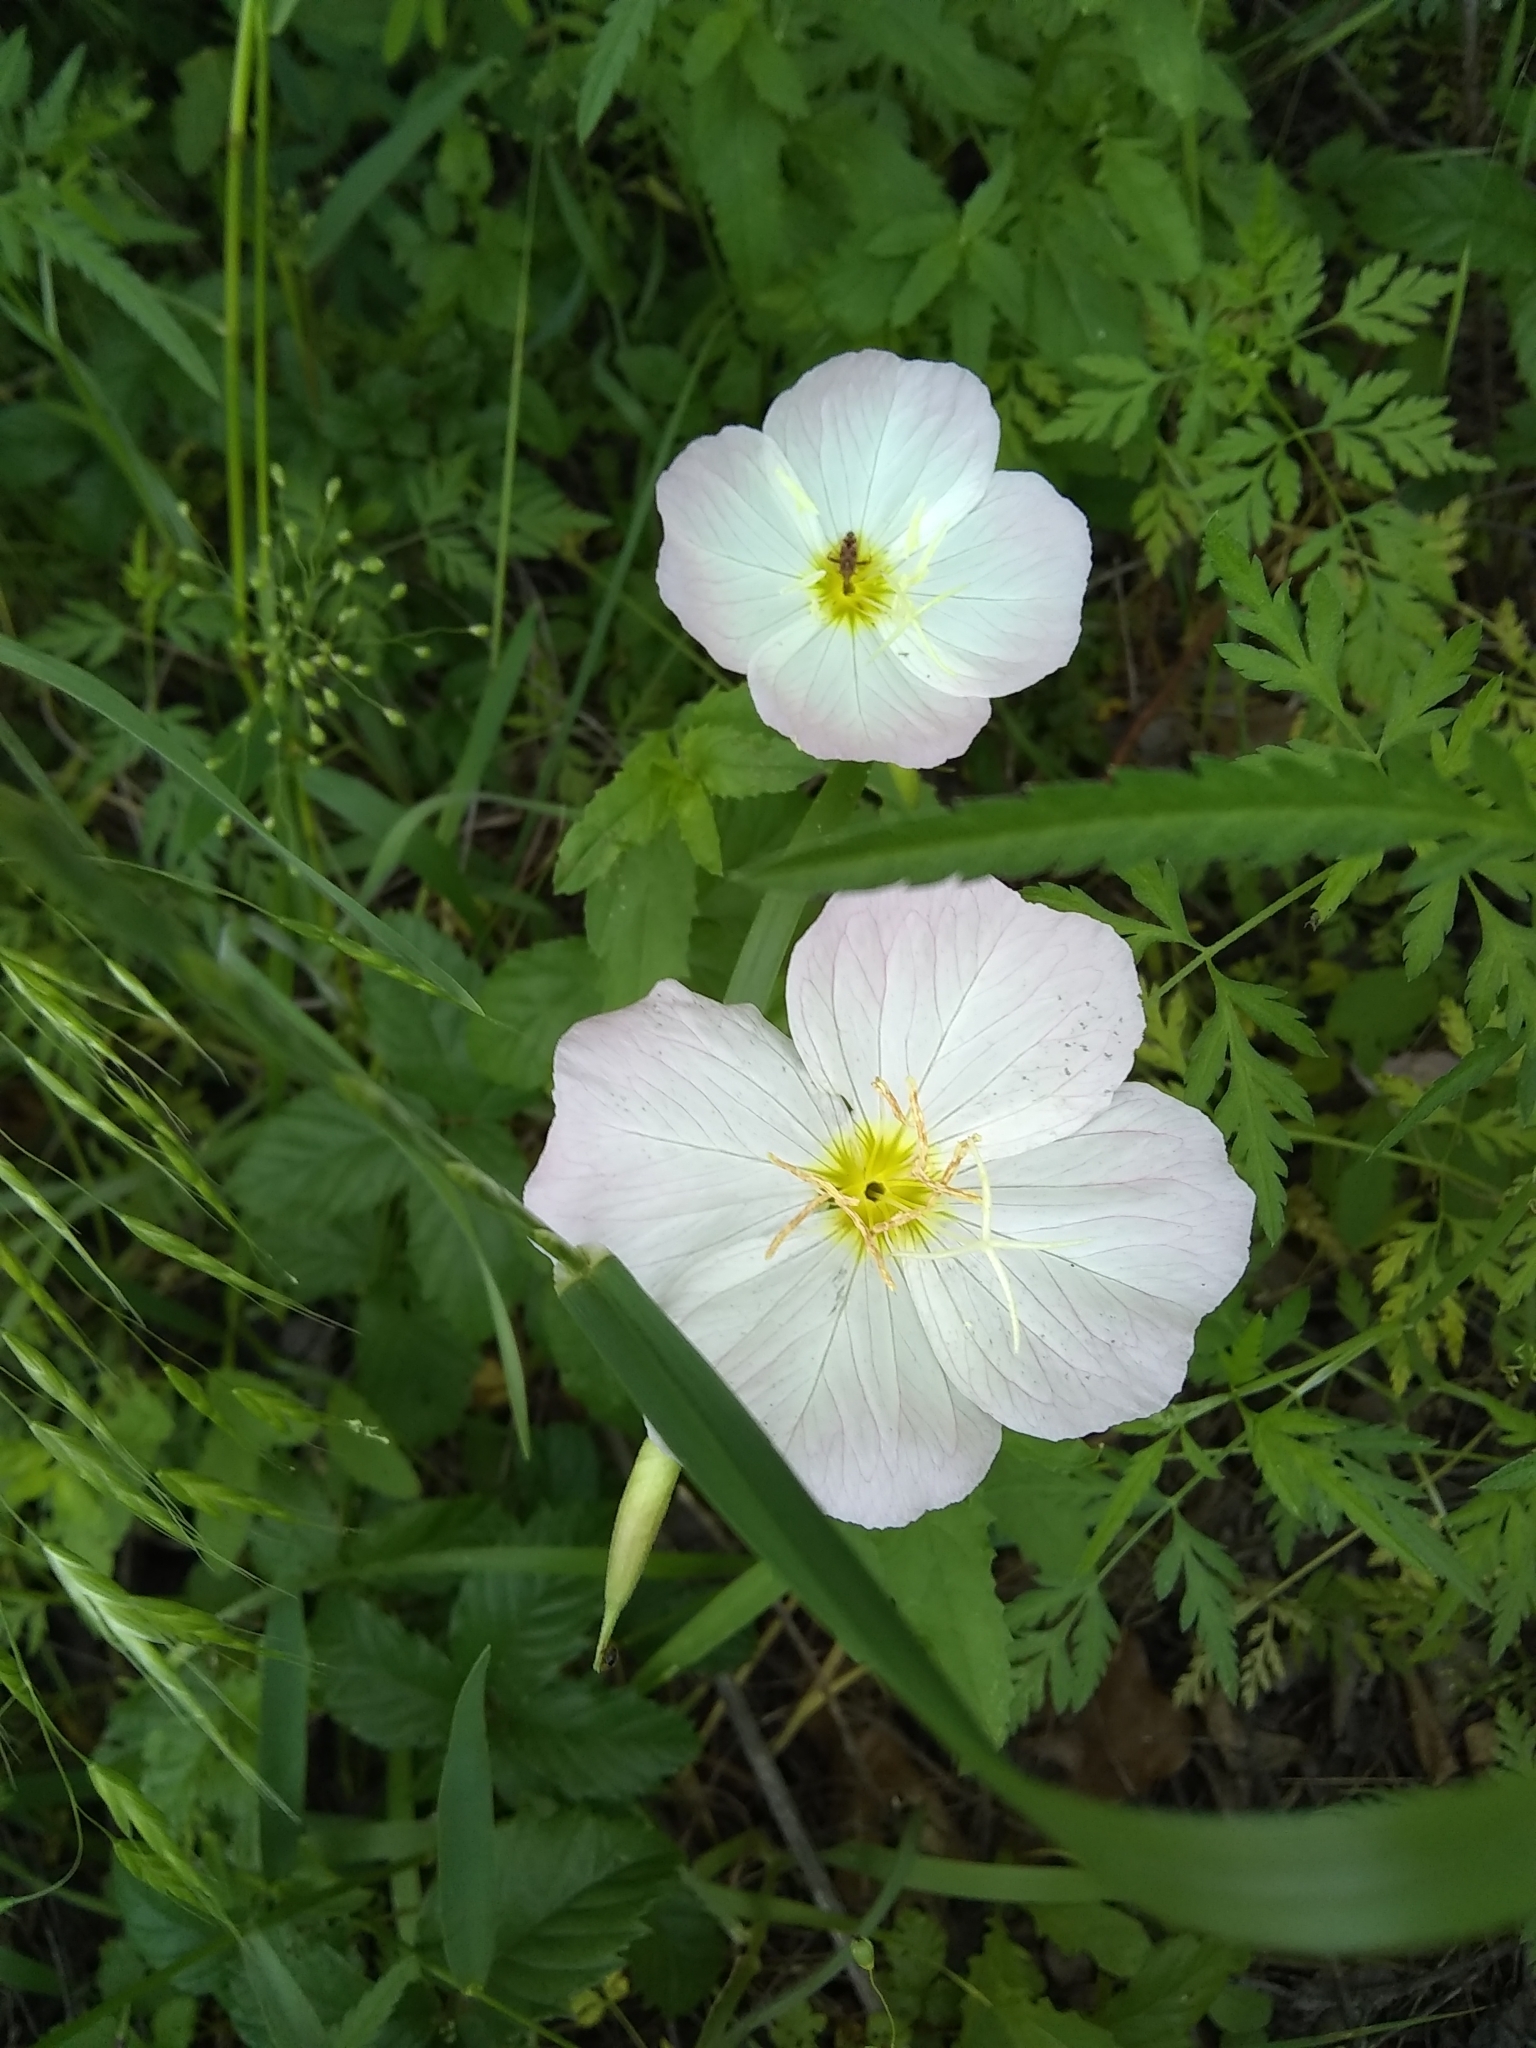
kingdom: Plantae
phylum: Tracheophyta
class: Magnoliopsida
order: Myrtales
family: Onagraceae
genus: Oenothera
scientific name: Oenothera speciosa
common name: White evening-primrose
